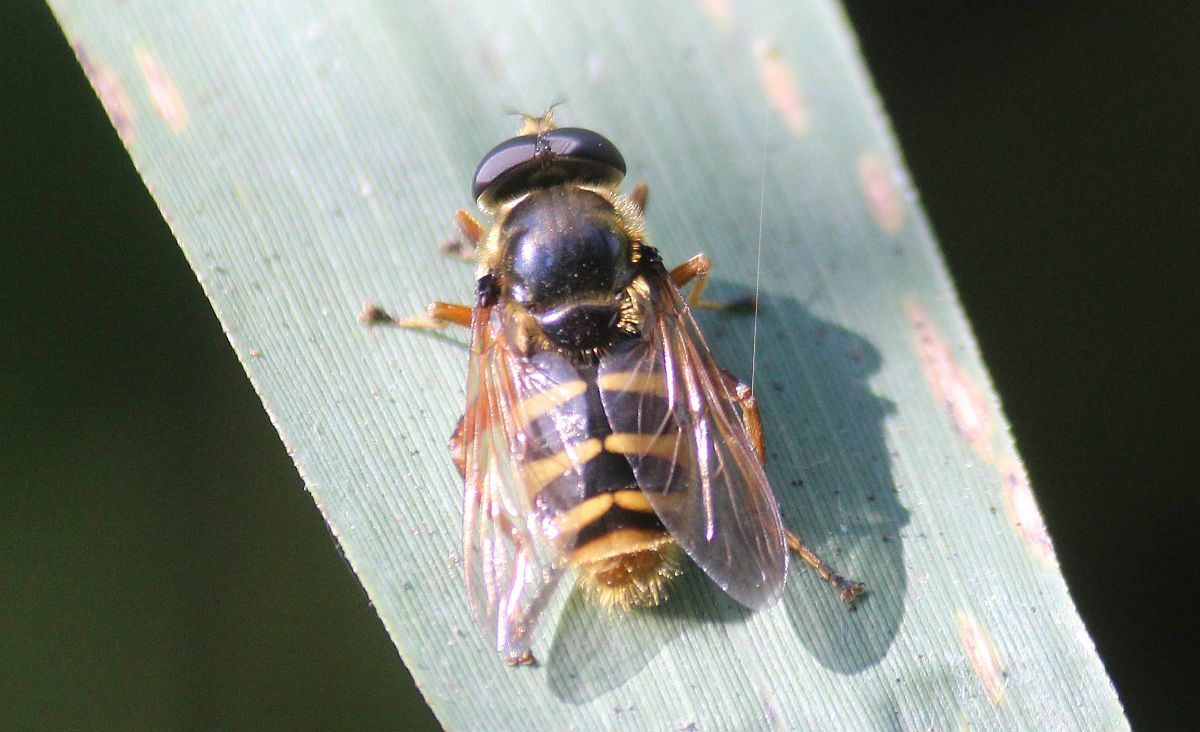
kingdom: Animalia
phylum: Arthropoda
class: Insecta
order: Diptera
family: Syrphidae
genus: Sericomyia
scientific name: Sericomyia silentis
